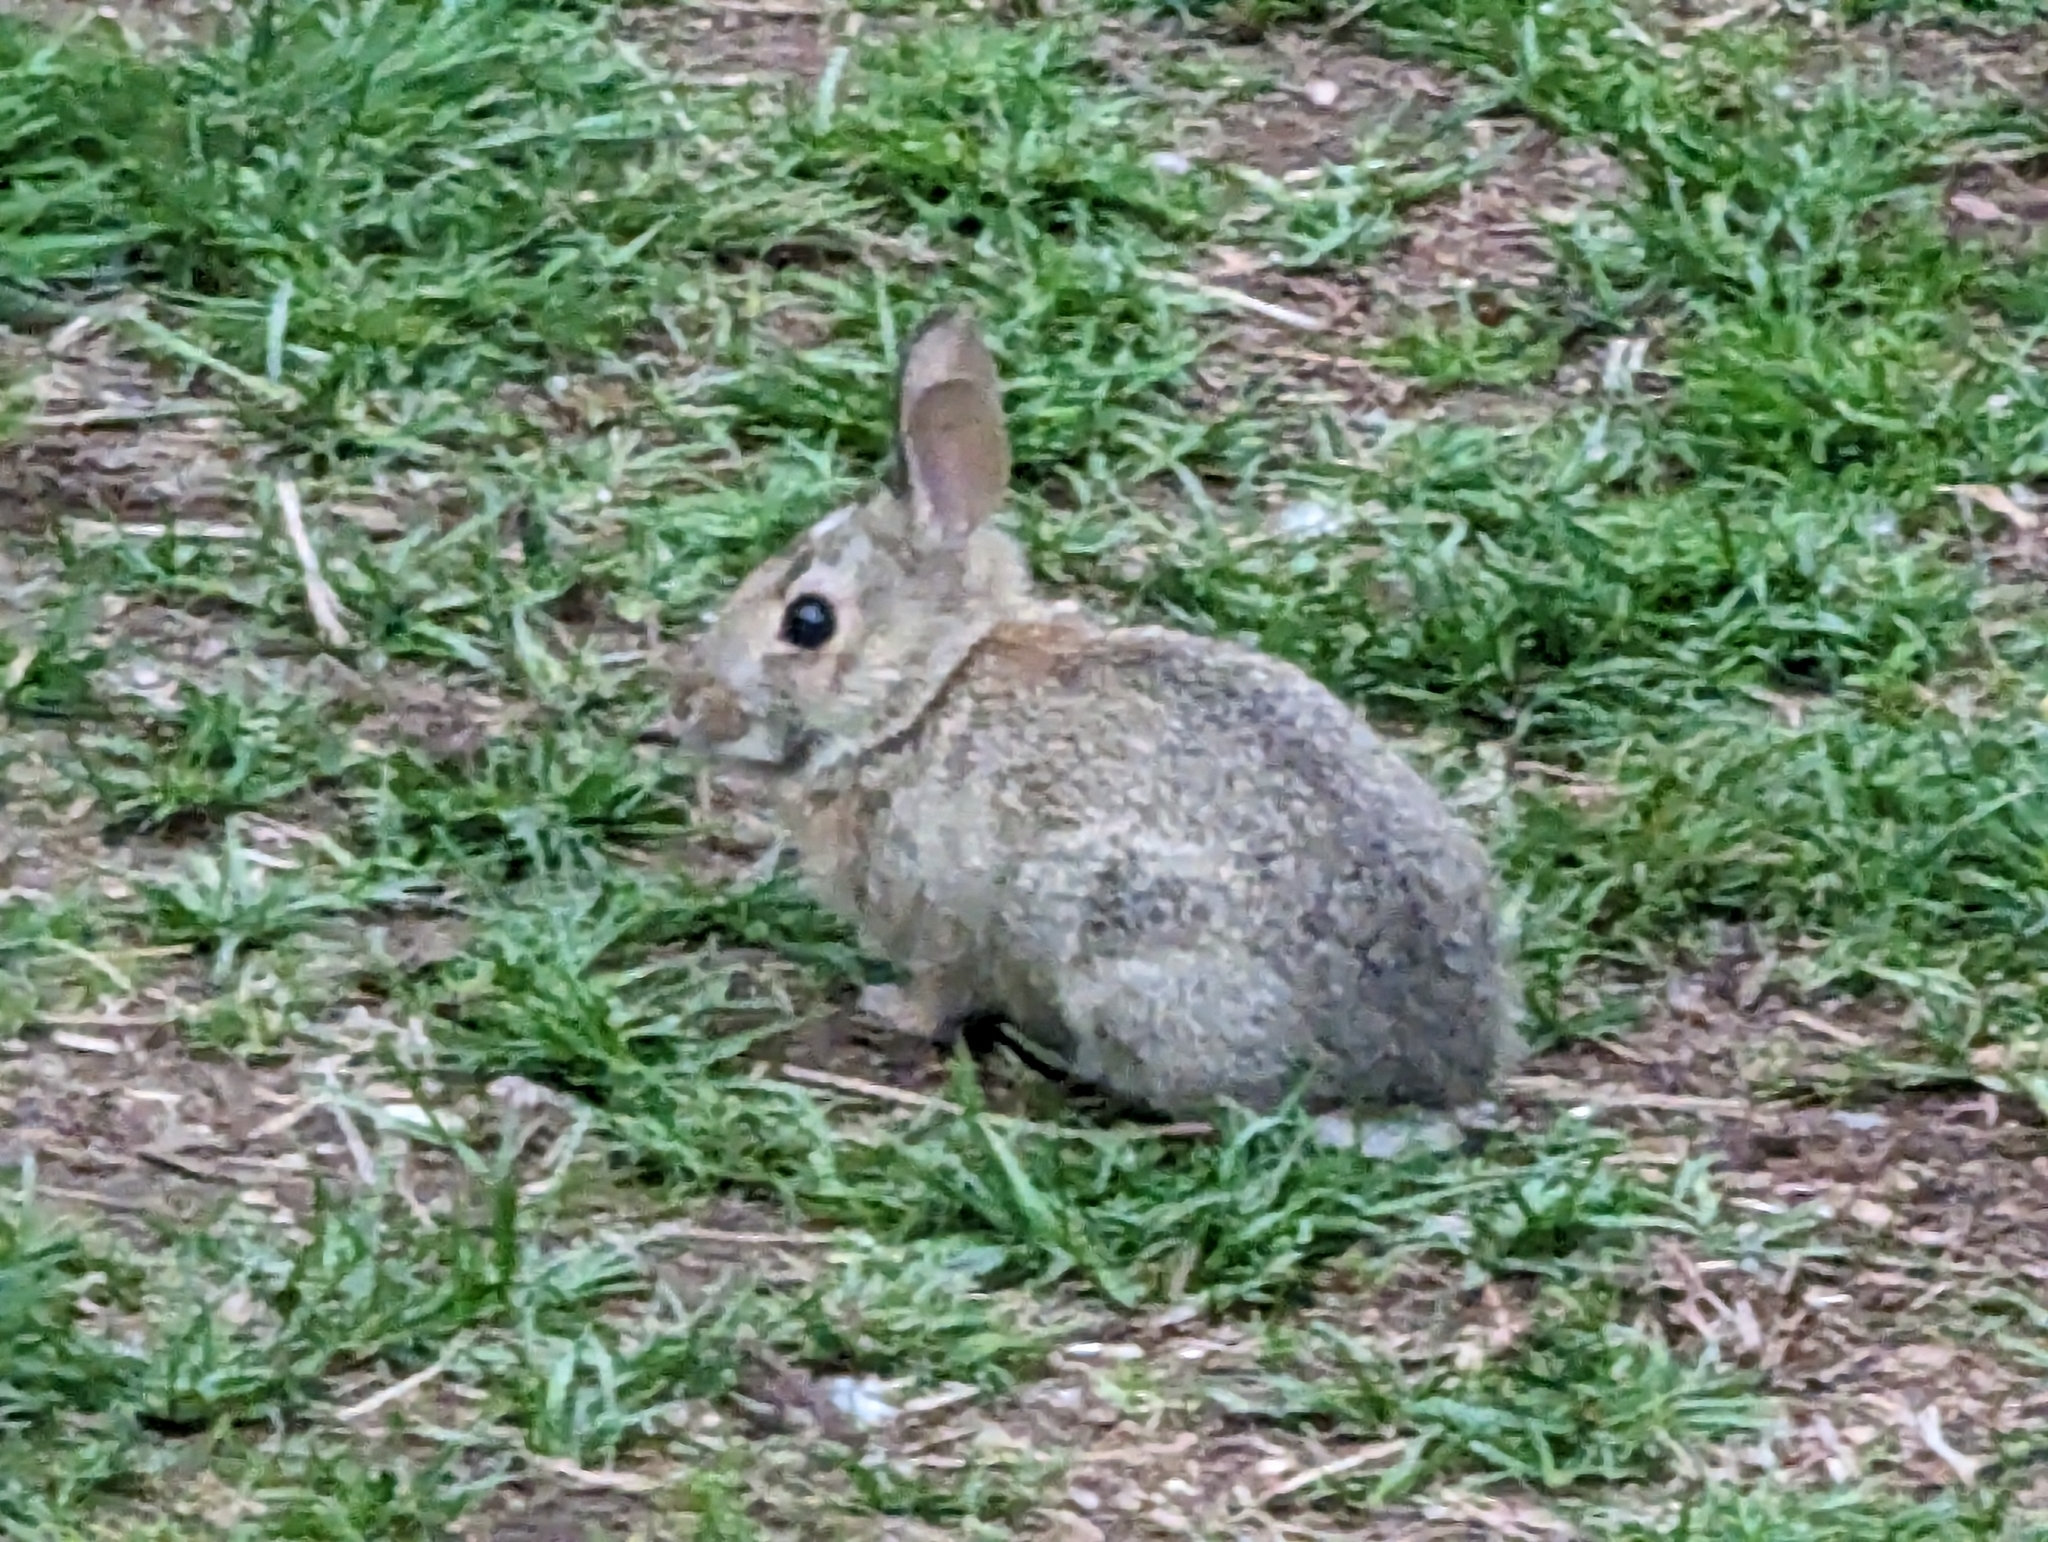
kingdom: Animalia
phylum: Chordata
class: Mammalia
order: Lagomorpha
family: Leporidae
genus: Sylvilagus
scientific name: Sylvilagus floridanus
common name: Eastern cottontail
